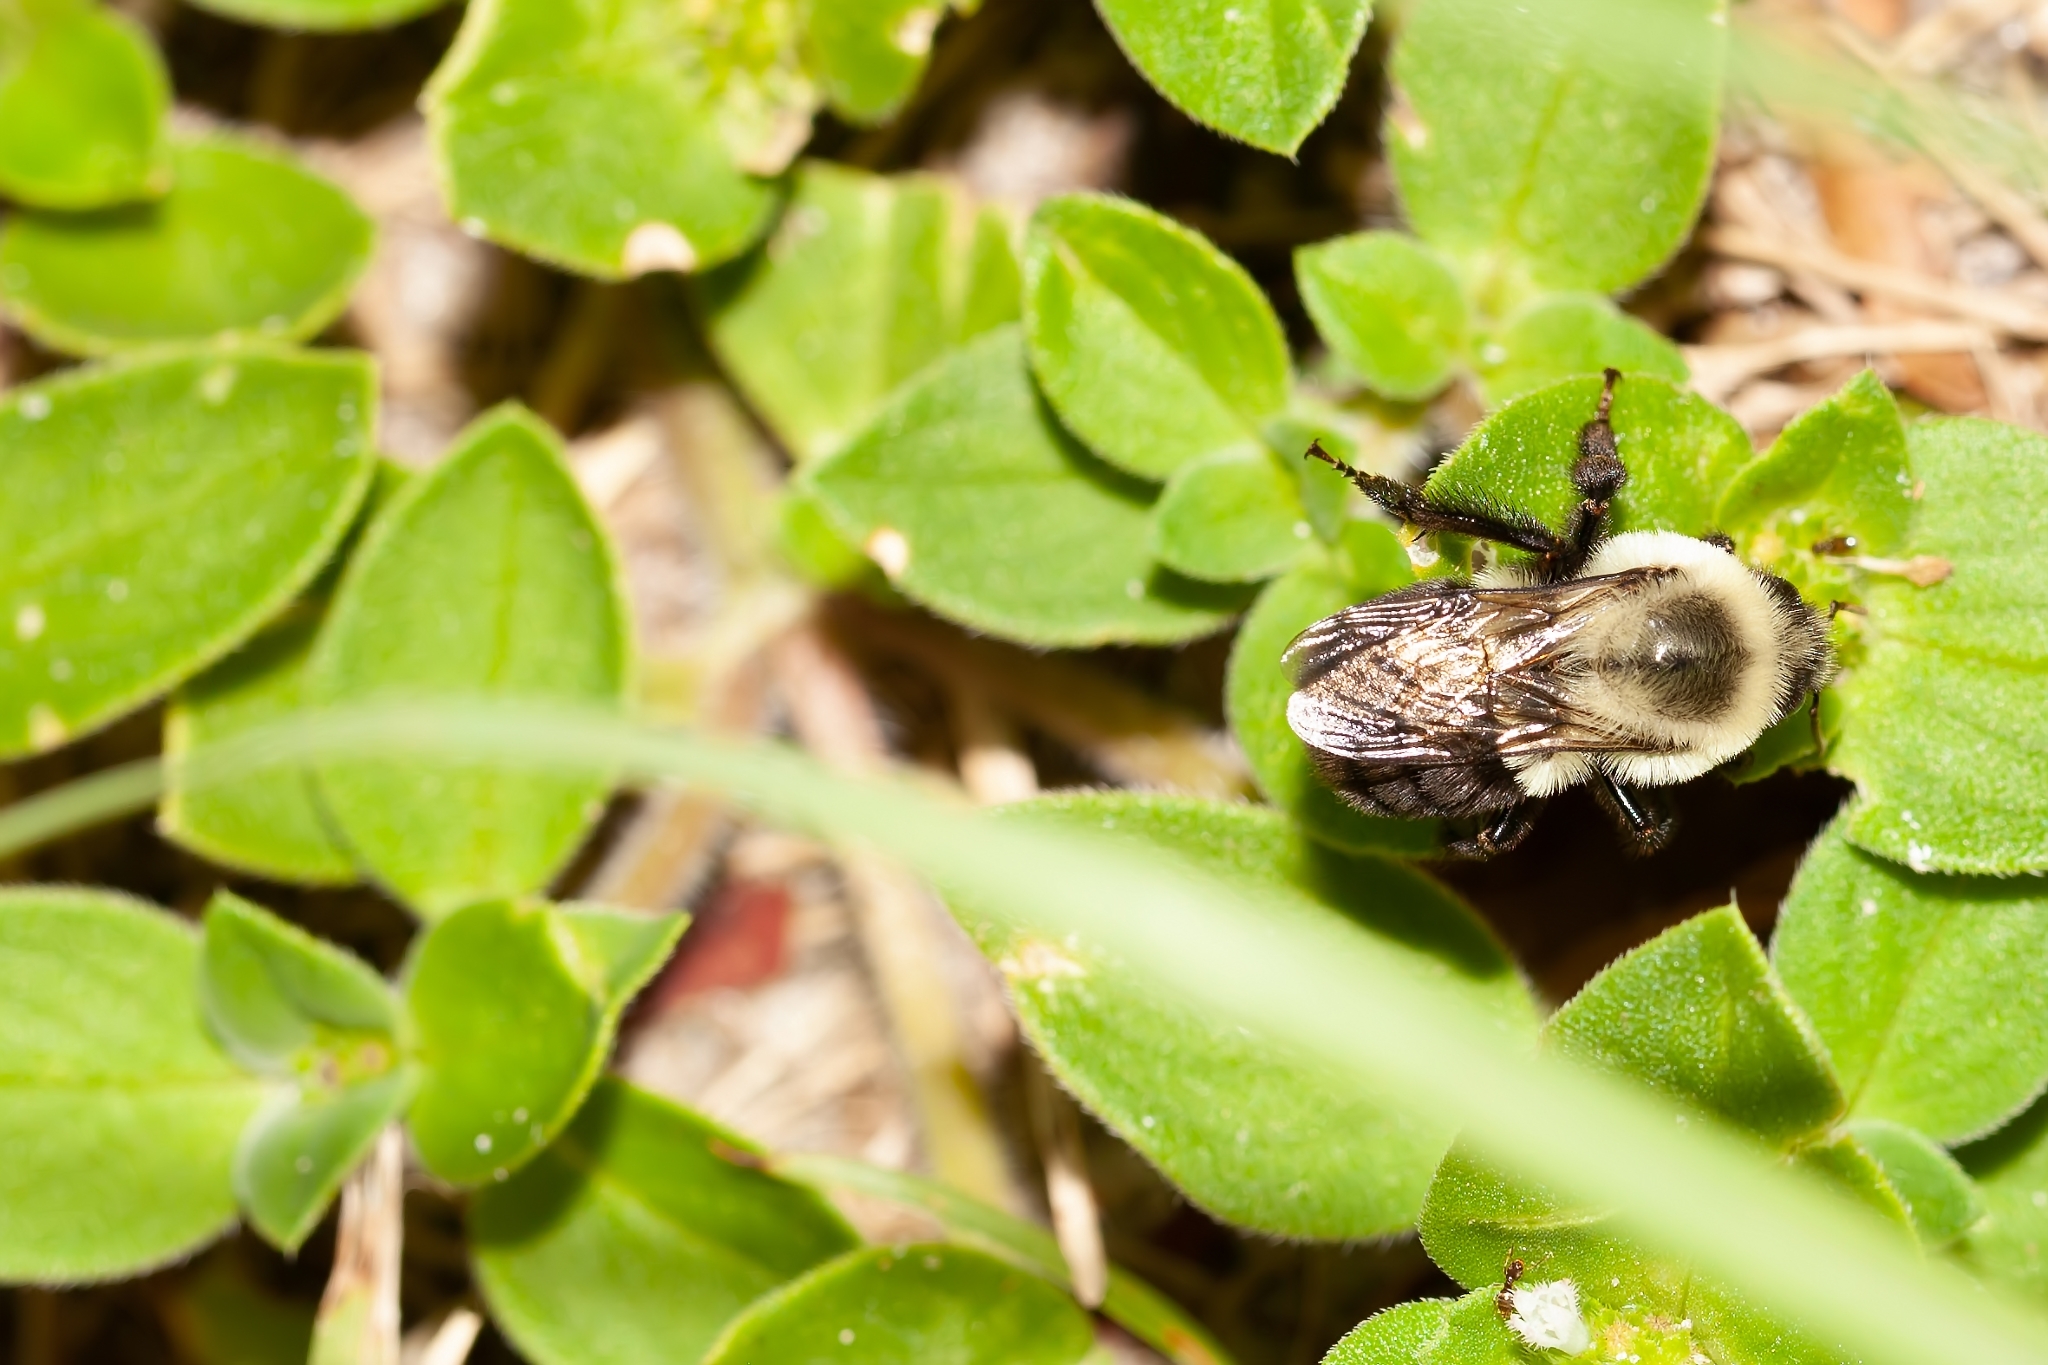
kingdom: Animalia
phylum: Arthropoda
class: Insecta
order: Hymenoptera
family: Apidae
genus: Bombus
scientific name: Bombus impatiens
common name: Common eastern bumble bee
